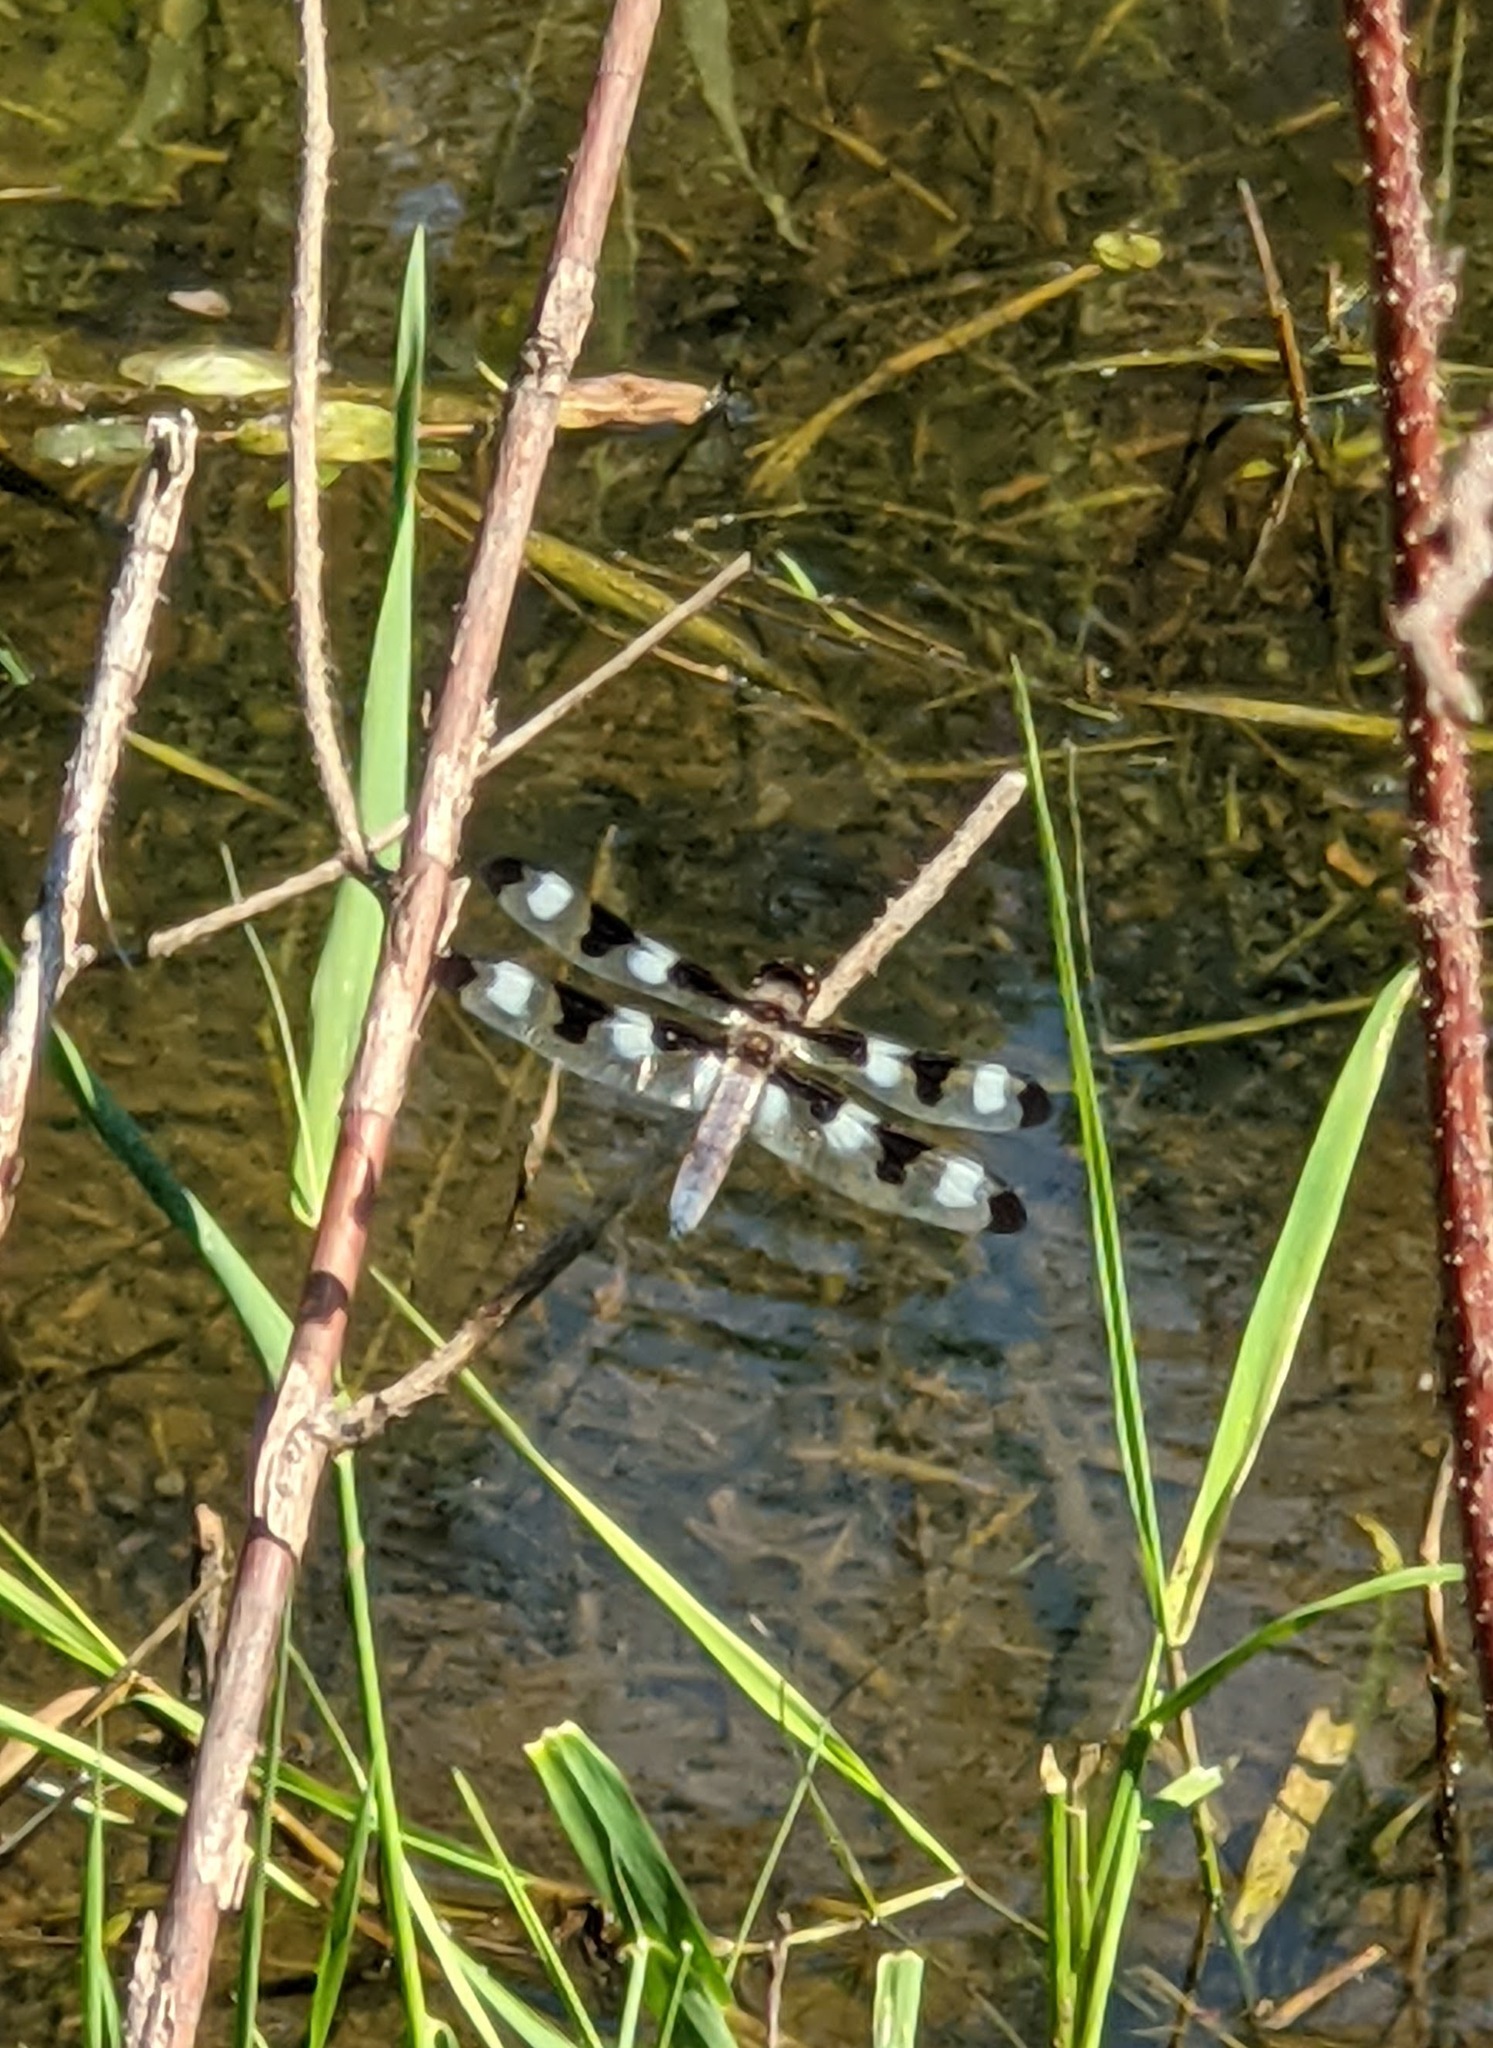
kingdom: Animalia
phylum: Arthropoda
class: Insecta
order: Odonata
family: Libellulidae
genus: Libellula
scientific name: Libellula pulchella
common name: Twelve-spotted skimmer
